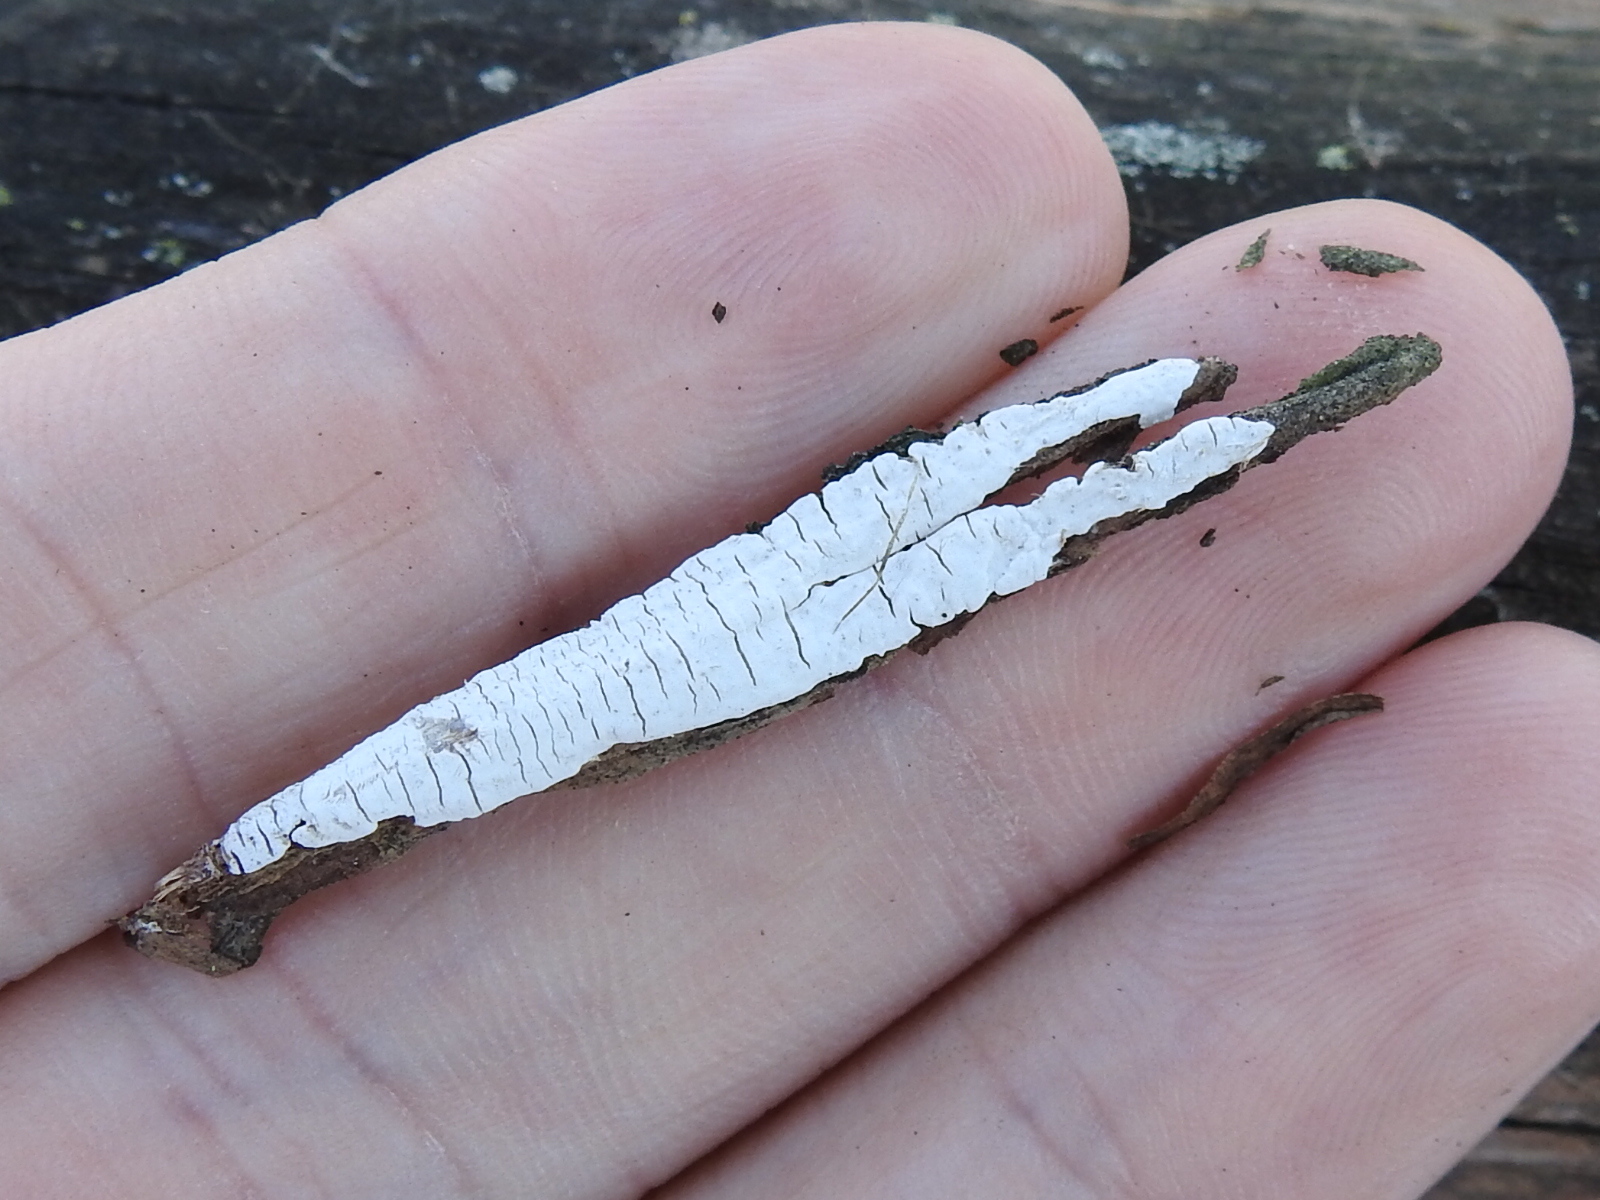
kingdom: Fungi
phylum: Basidiomycota
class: Agaricomycetes
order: Agaricales
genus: Dendrothele
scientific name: Dendrothele nivosa
